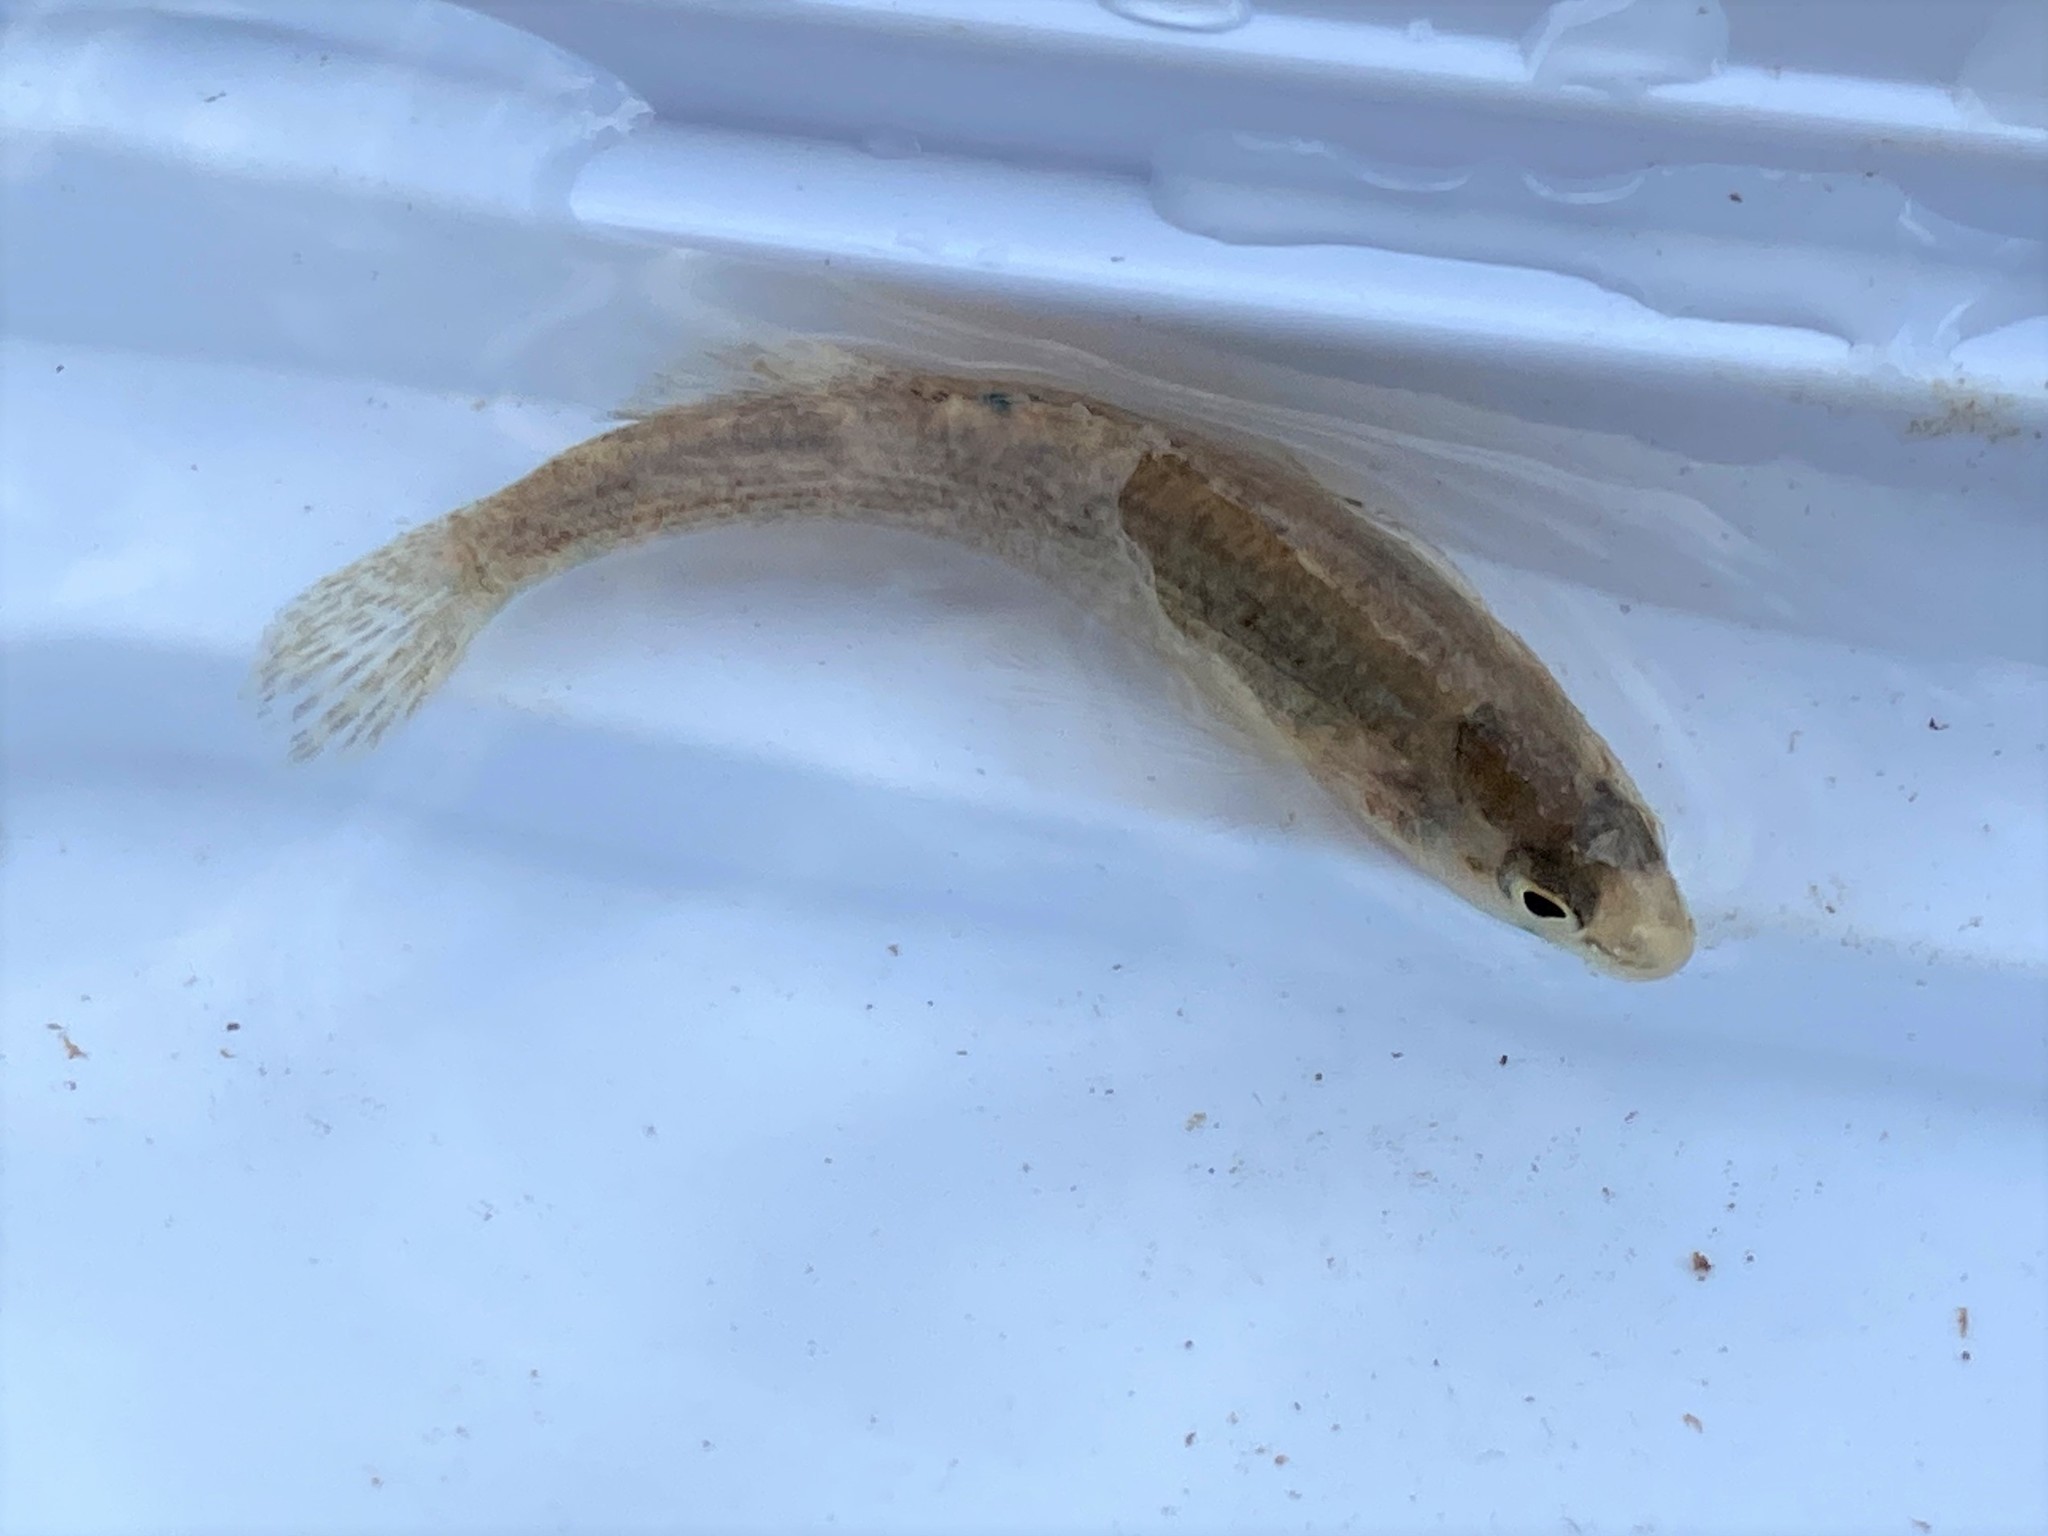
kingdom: Animalia
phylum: Chordata
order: Perciformes
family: Percidae
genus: Etheostoma
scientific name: Etheostoma spectabile
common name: Orangethroat darter
